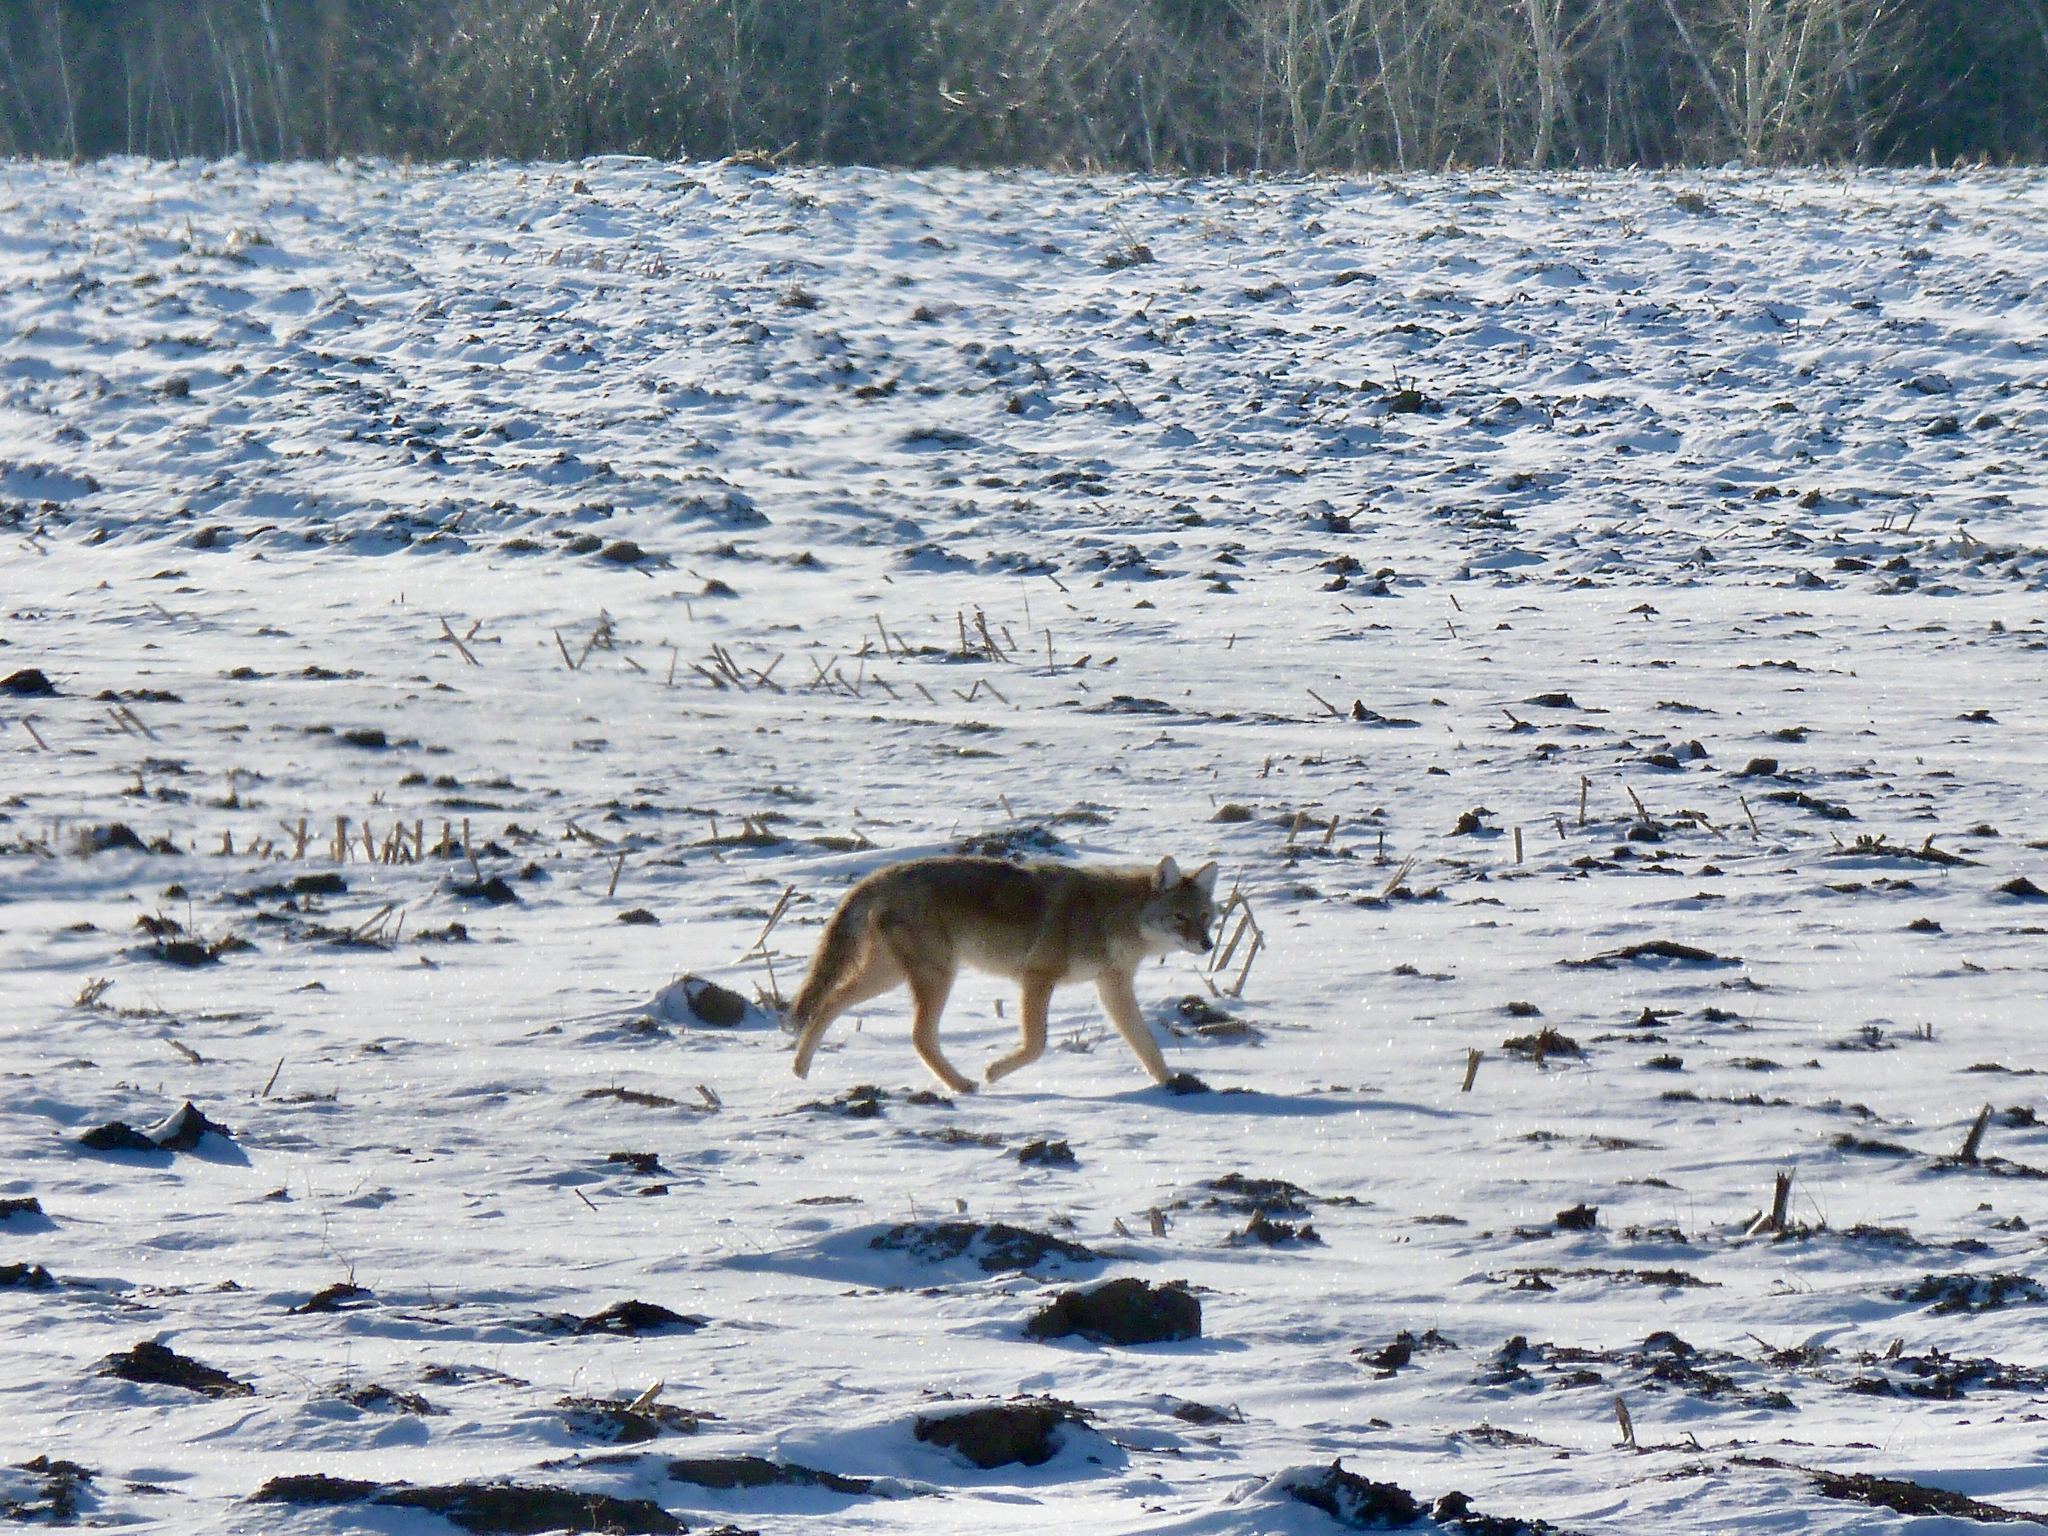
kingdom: Animalia
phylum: Chordata
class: Mammalia
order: Carnivora
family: Canidae
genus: Canis
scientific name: Canis latrans
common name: Coyote
